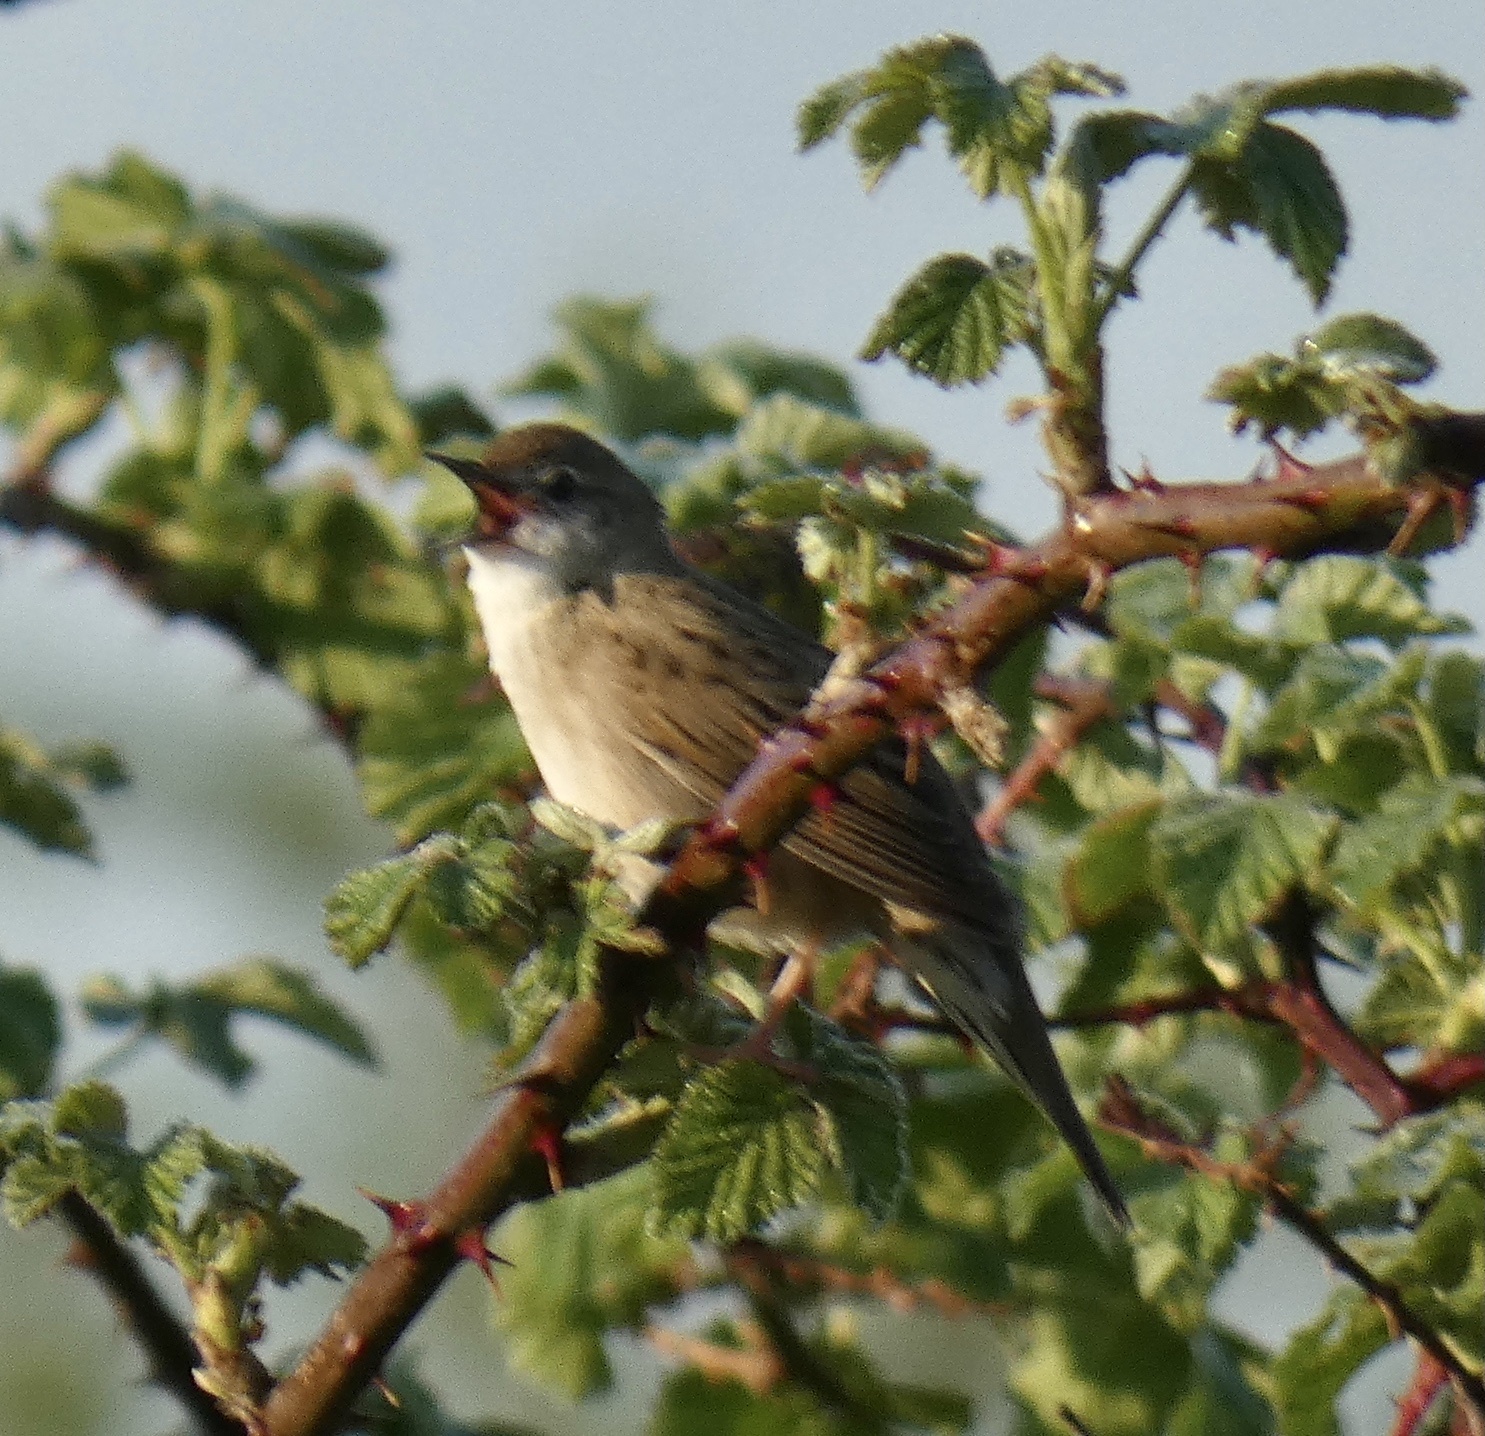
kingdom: Animalia
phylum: Chordata
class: Aves
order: Passeriformes
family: Locustellidae
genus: Locustella
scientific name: Locustella naevia
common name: Common grasshopper warbler
